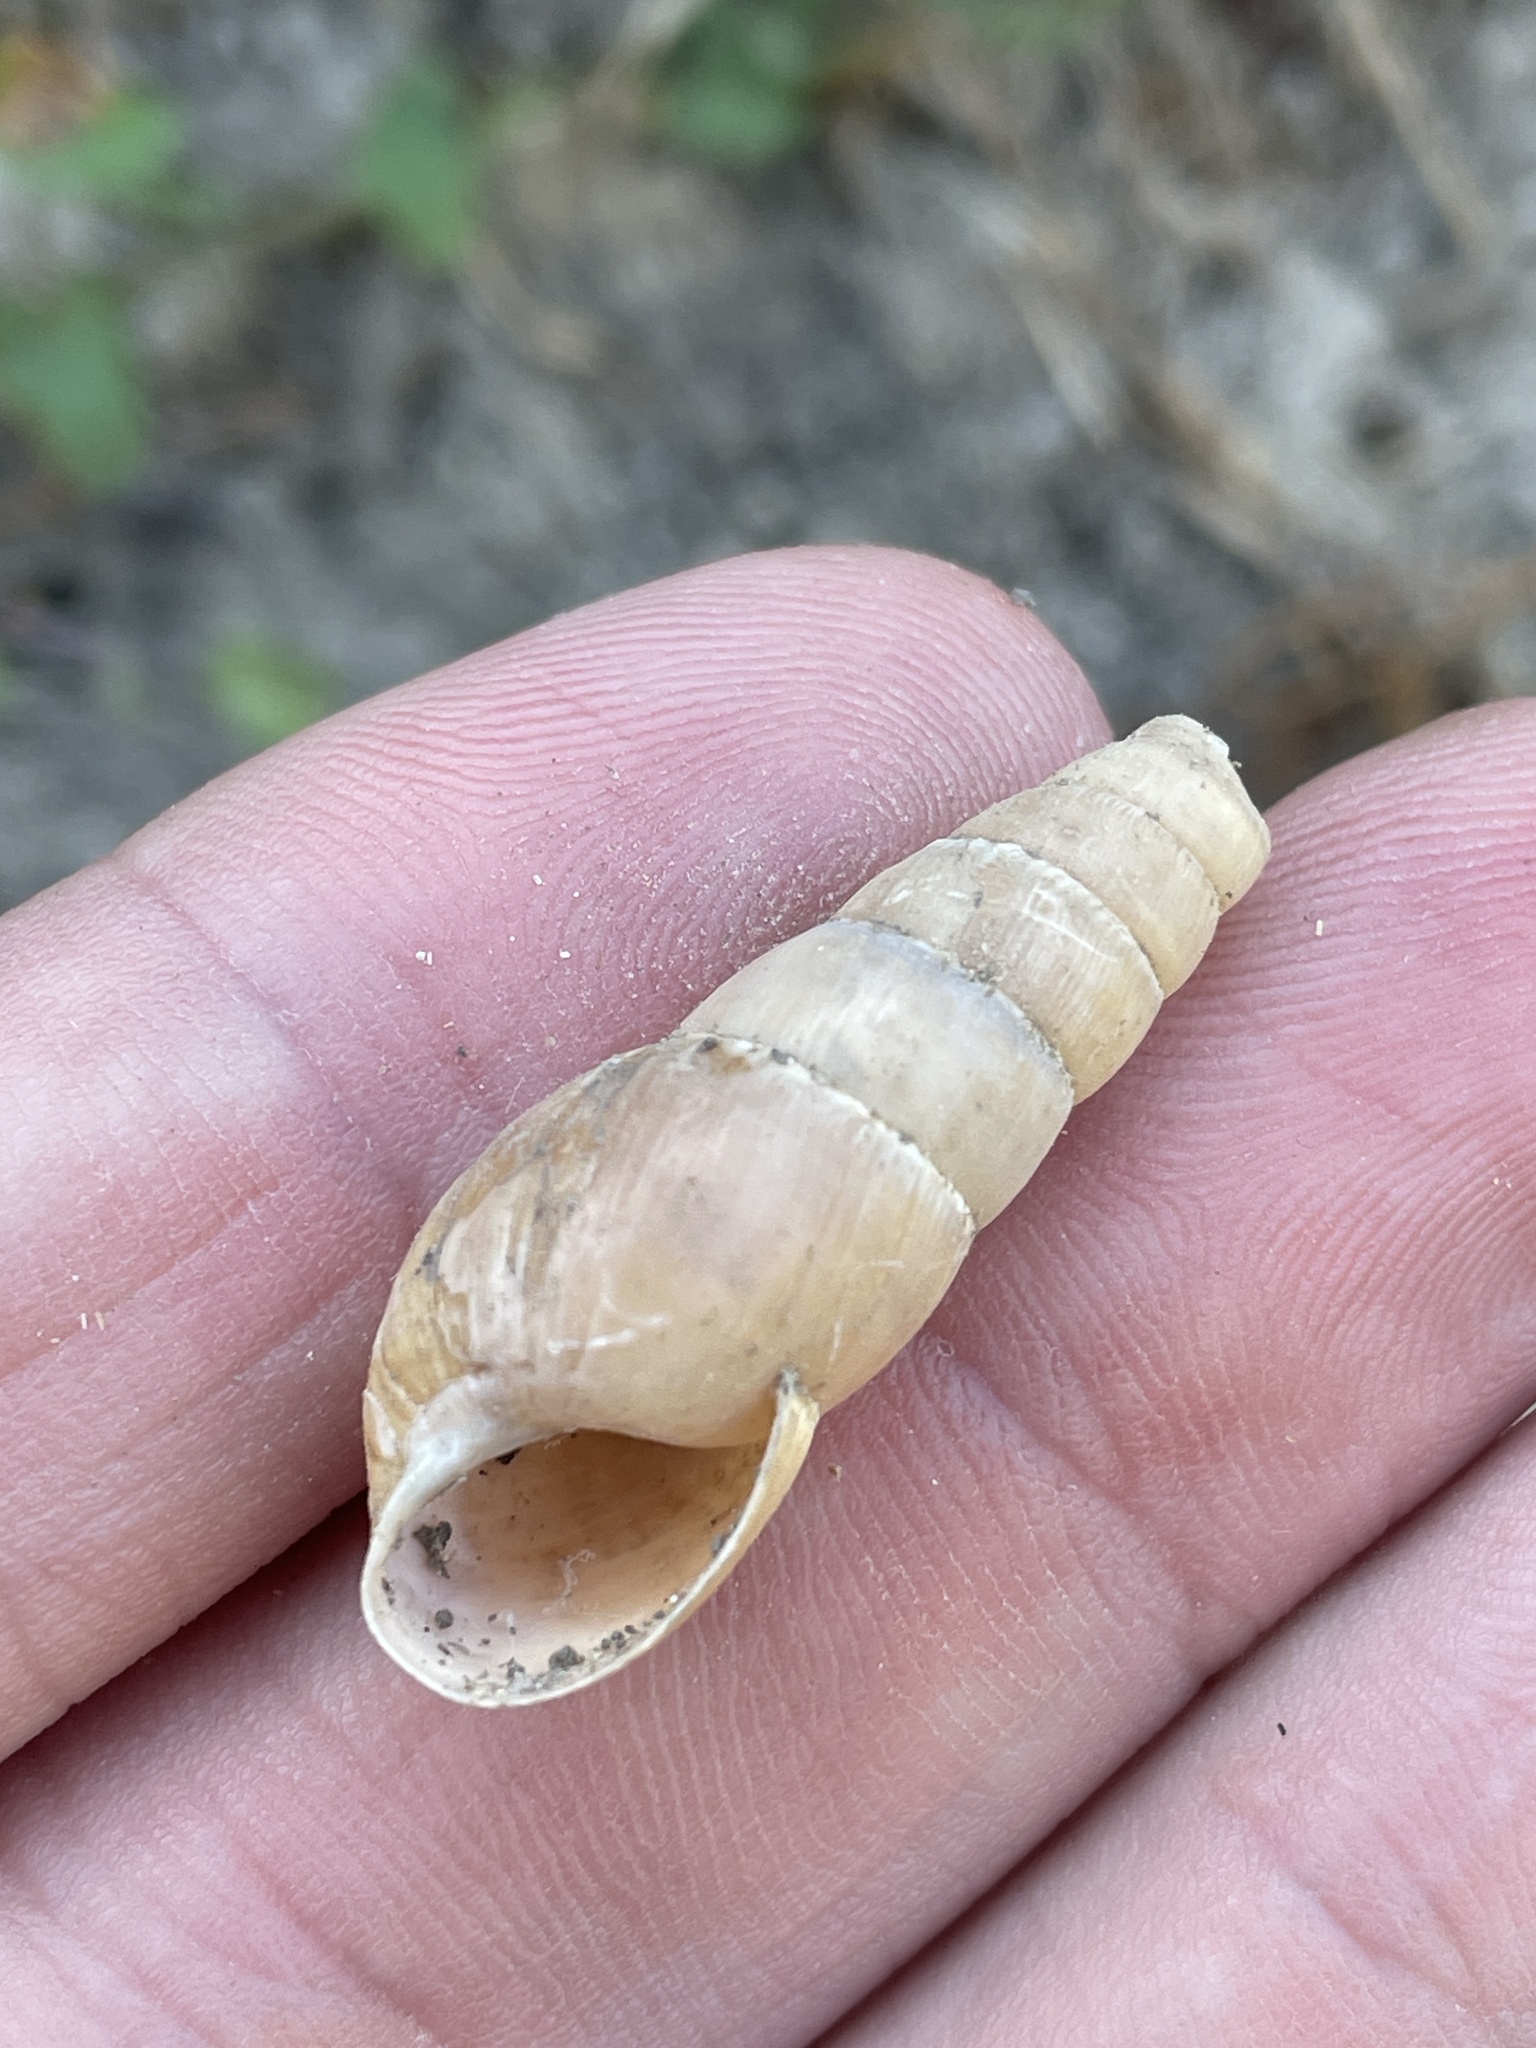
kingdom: Animalia
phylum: Mollusca
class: Gastropoda
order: Stylommatophora
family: Achatinidae
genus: Rumina
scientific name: Rumina decollata
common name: Decollate snail
